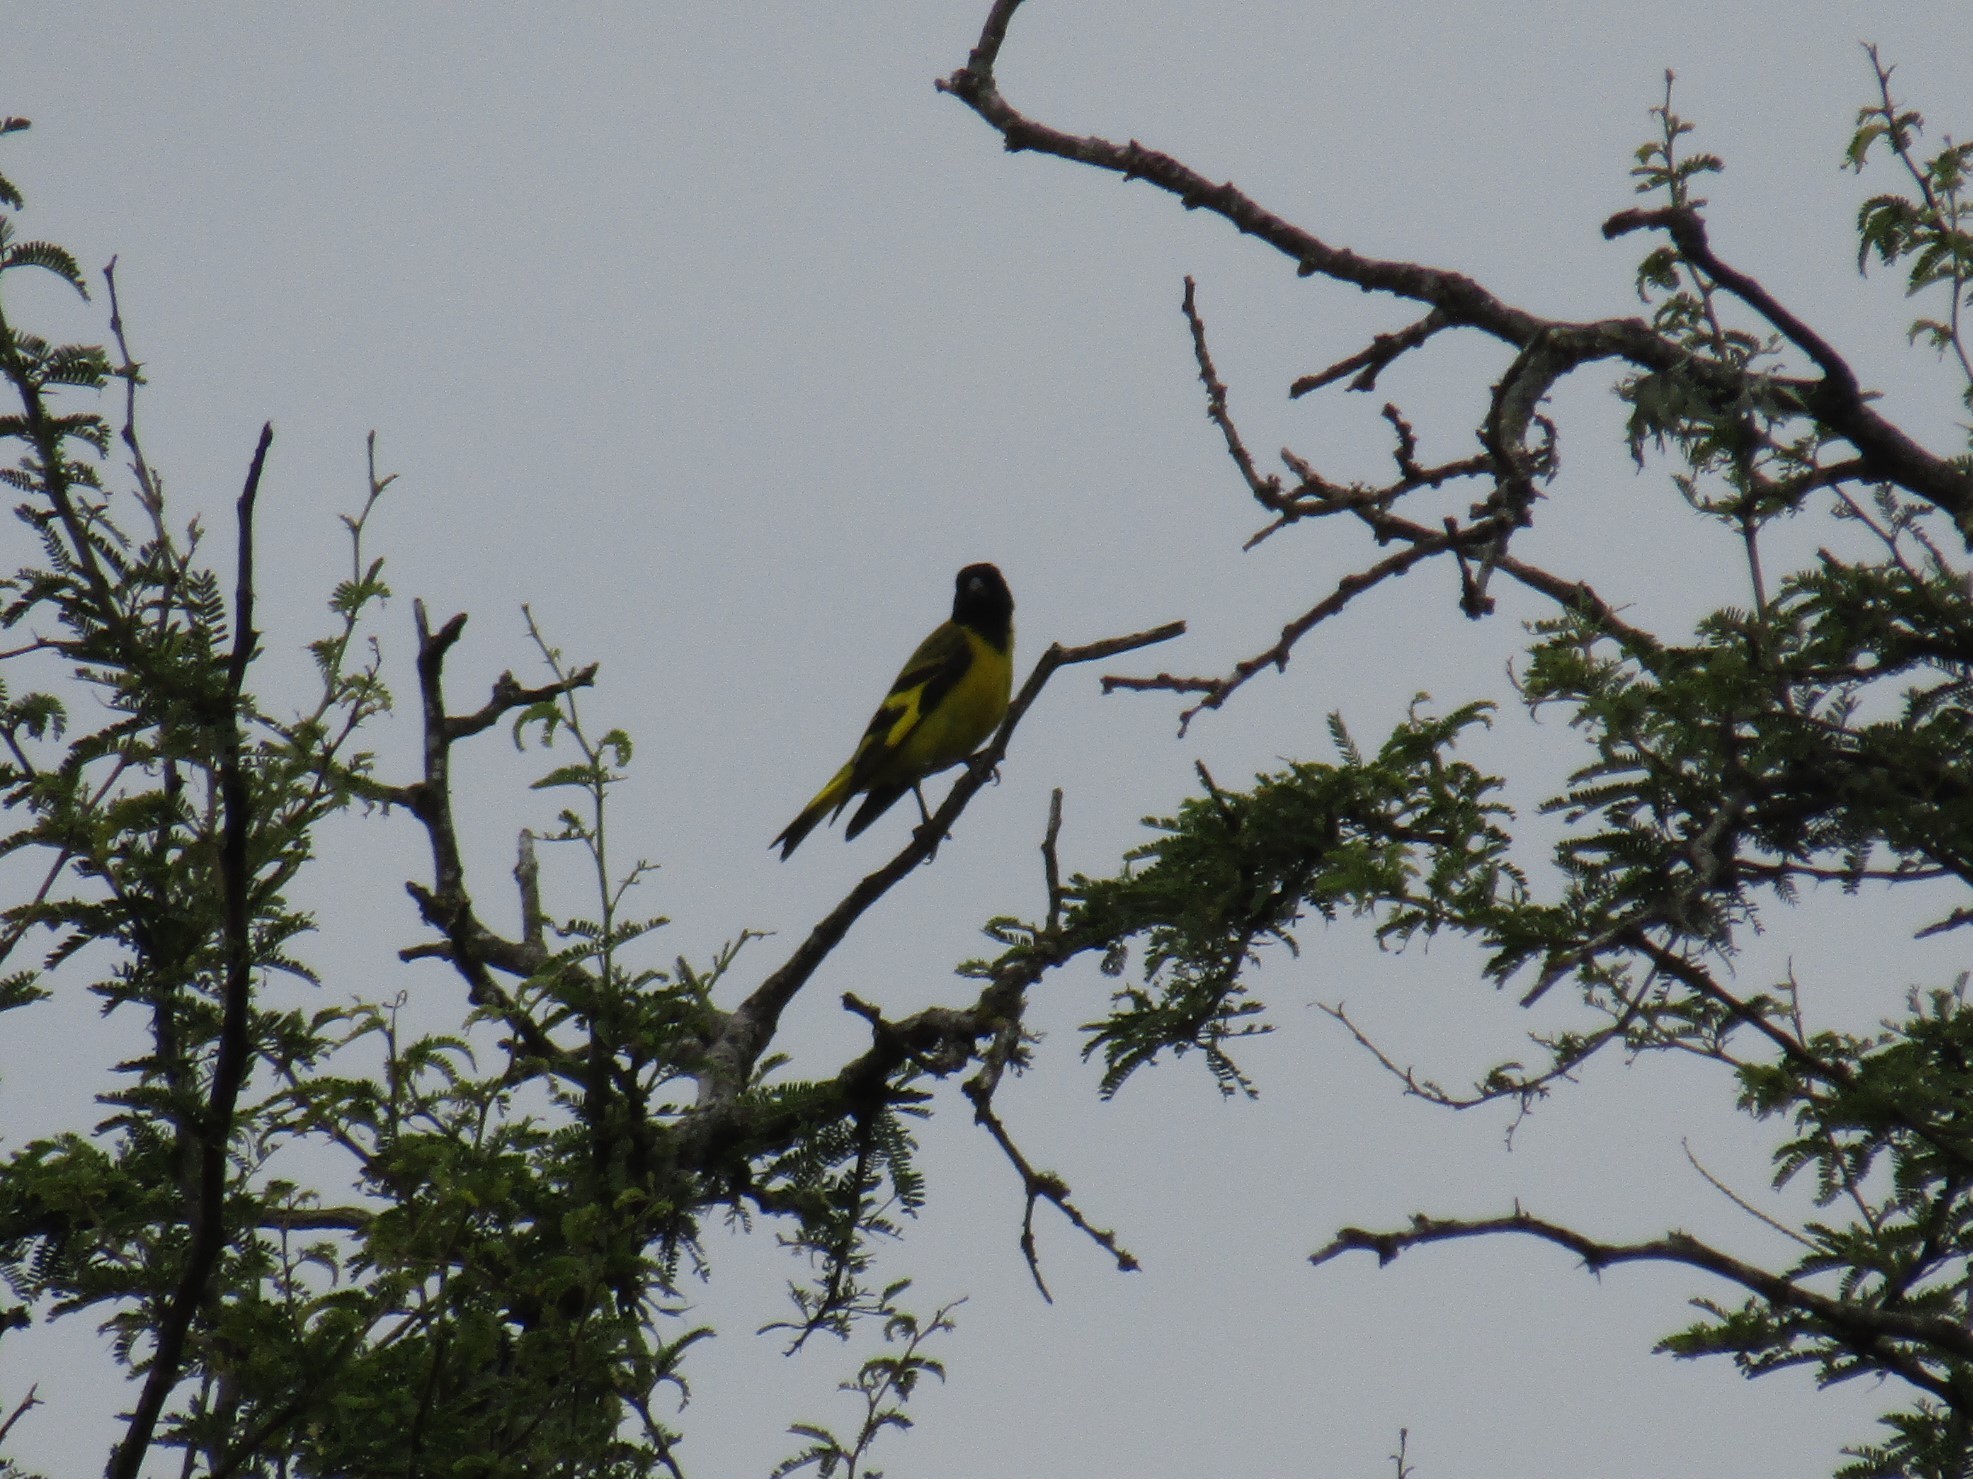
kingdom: Animalia
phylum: Chordata
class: Aves
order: Passeriformes
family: Fringillidae
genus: Spinus
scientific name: Spinus magellanicus
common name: Hooded siskin
